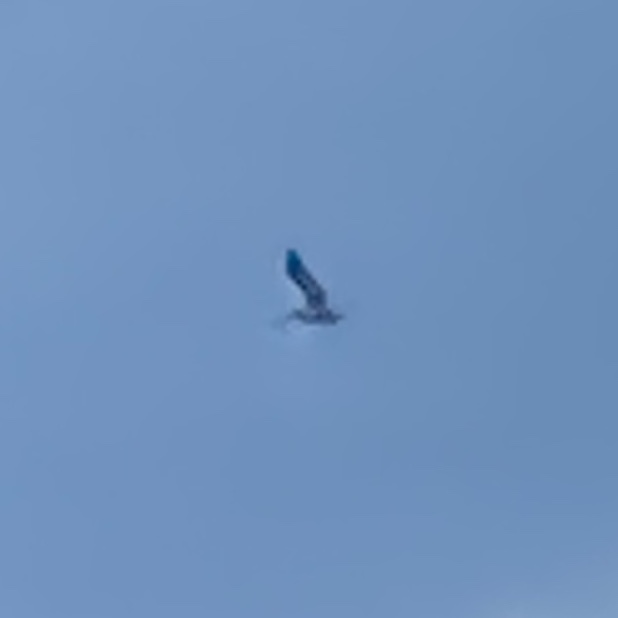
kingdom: Animalia
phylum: Chordata
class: Aves
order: Pelecaniformes
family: Pelecanidae
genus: Pelecanus
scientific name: Pelecanus occidentalis
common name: Brown pelican
